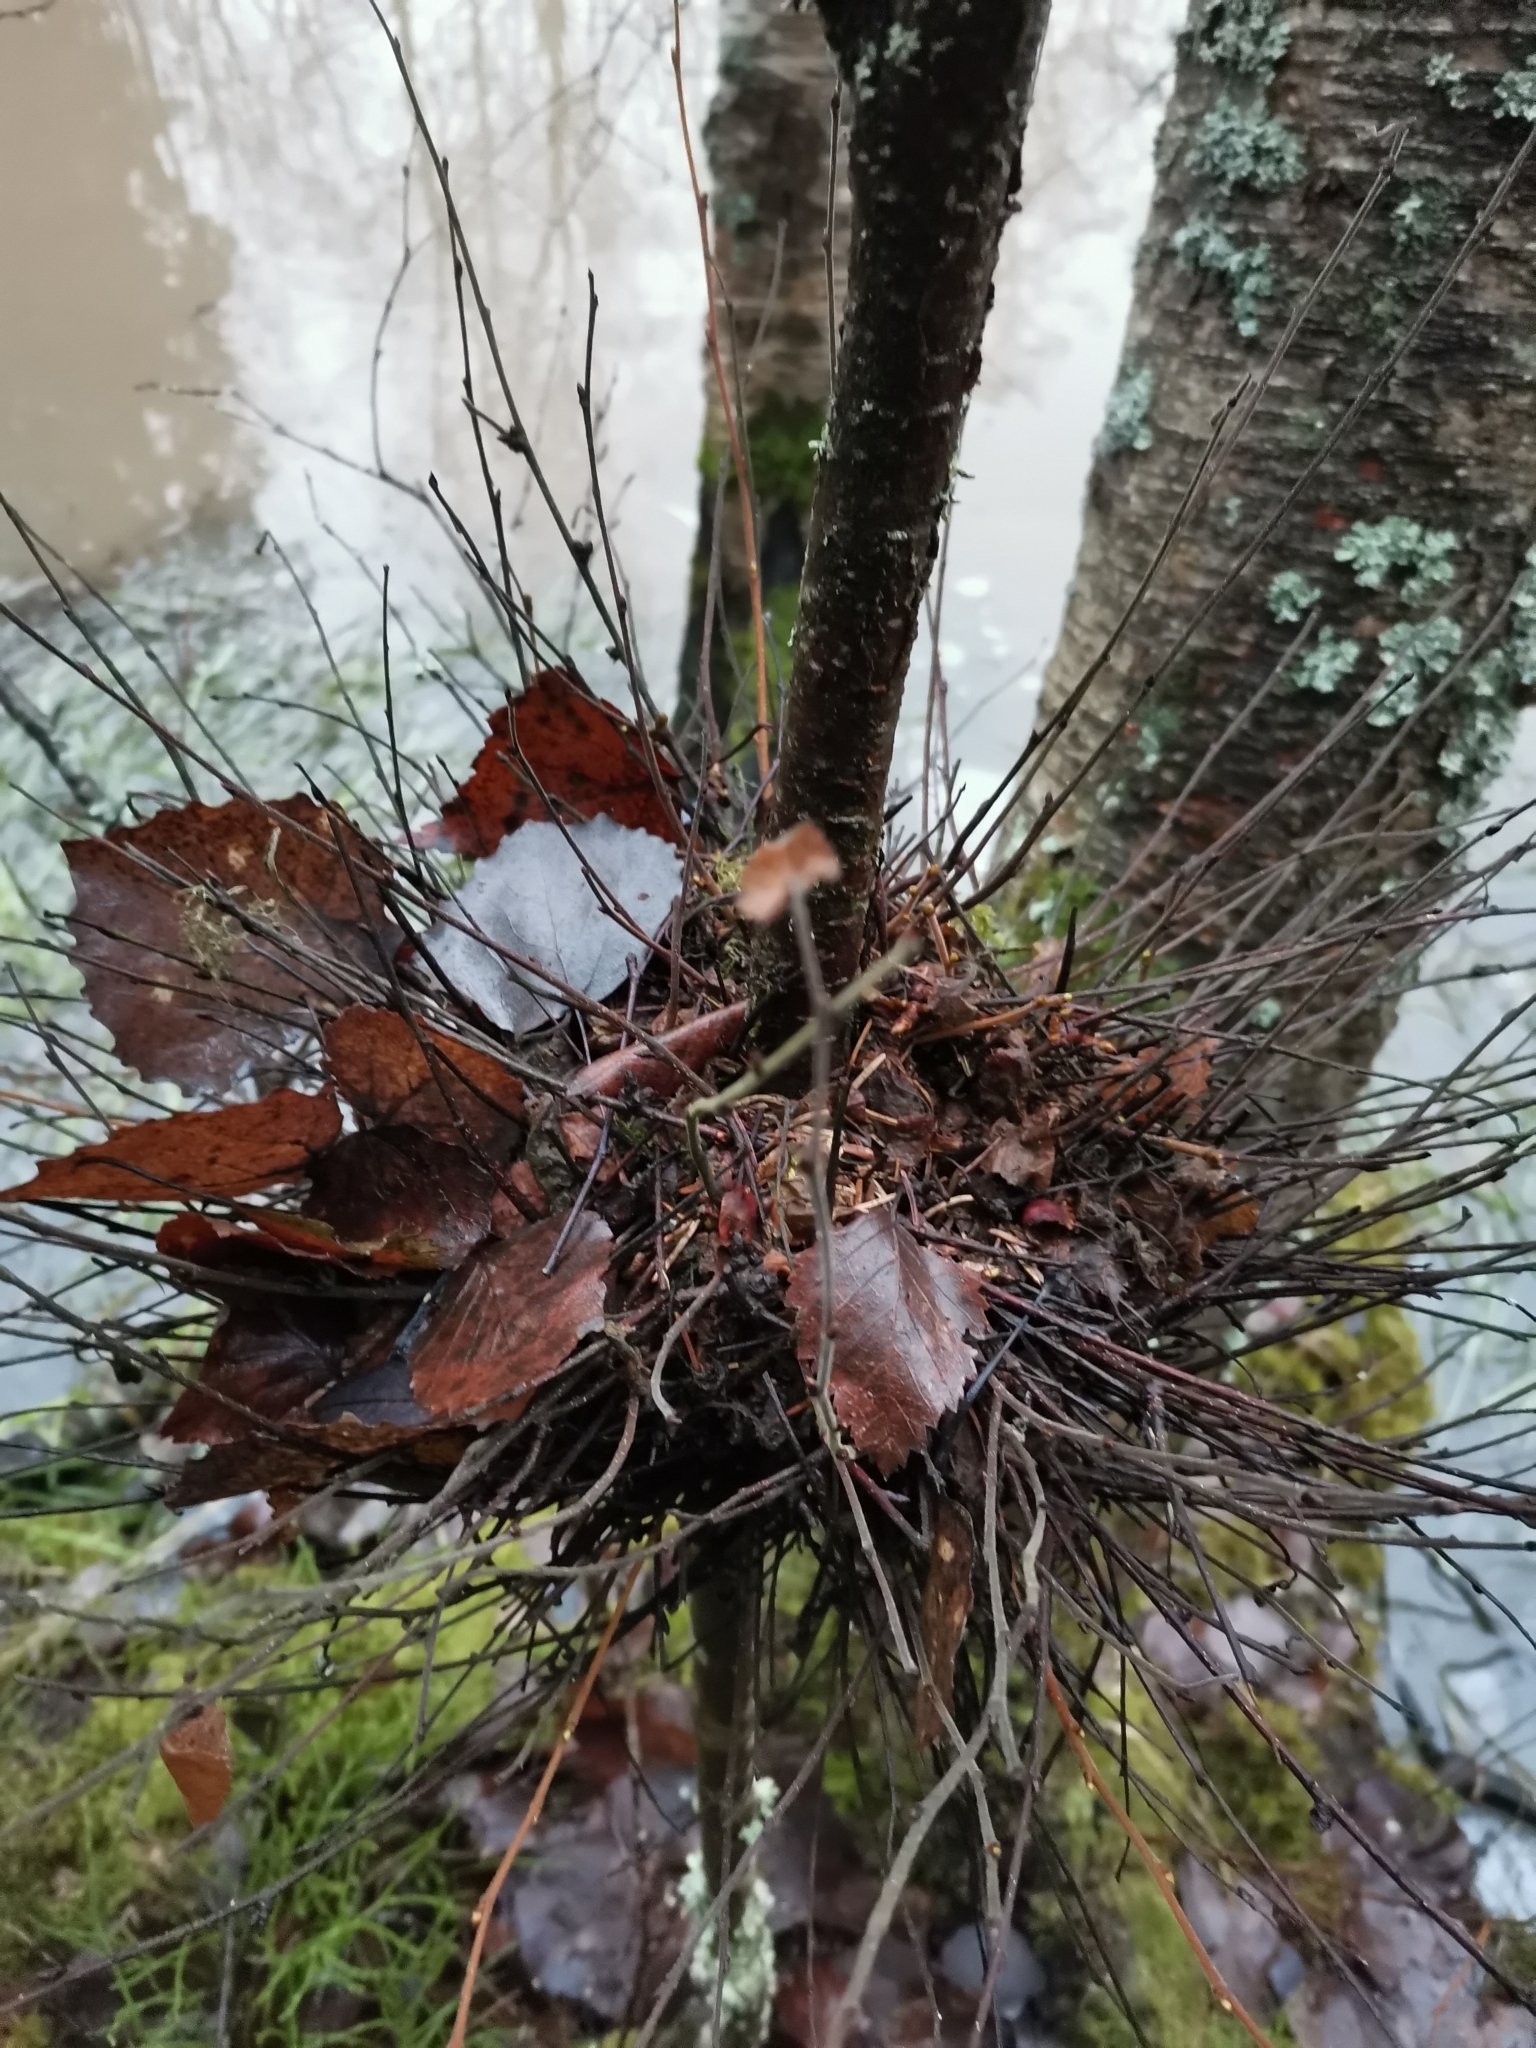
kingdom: Fungi
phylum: Ascomycota
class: Taphrinomycetes
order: Taphrinales
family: Taphrinaceae
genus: Taphrina
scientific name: Taphrina betulina
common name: Birch besom
